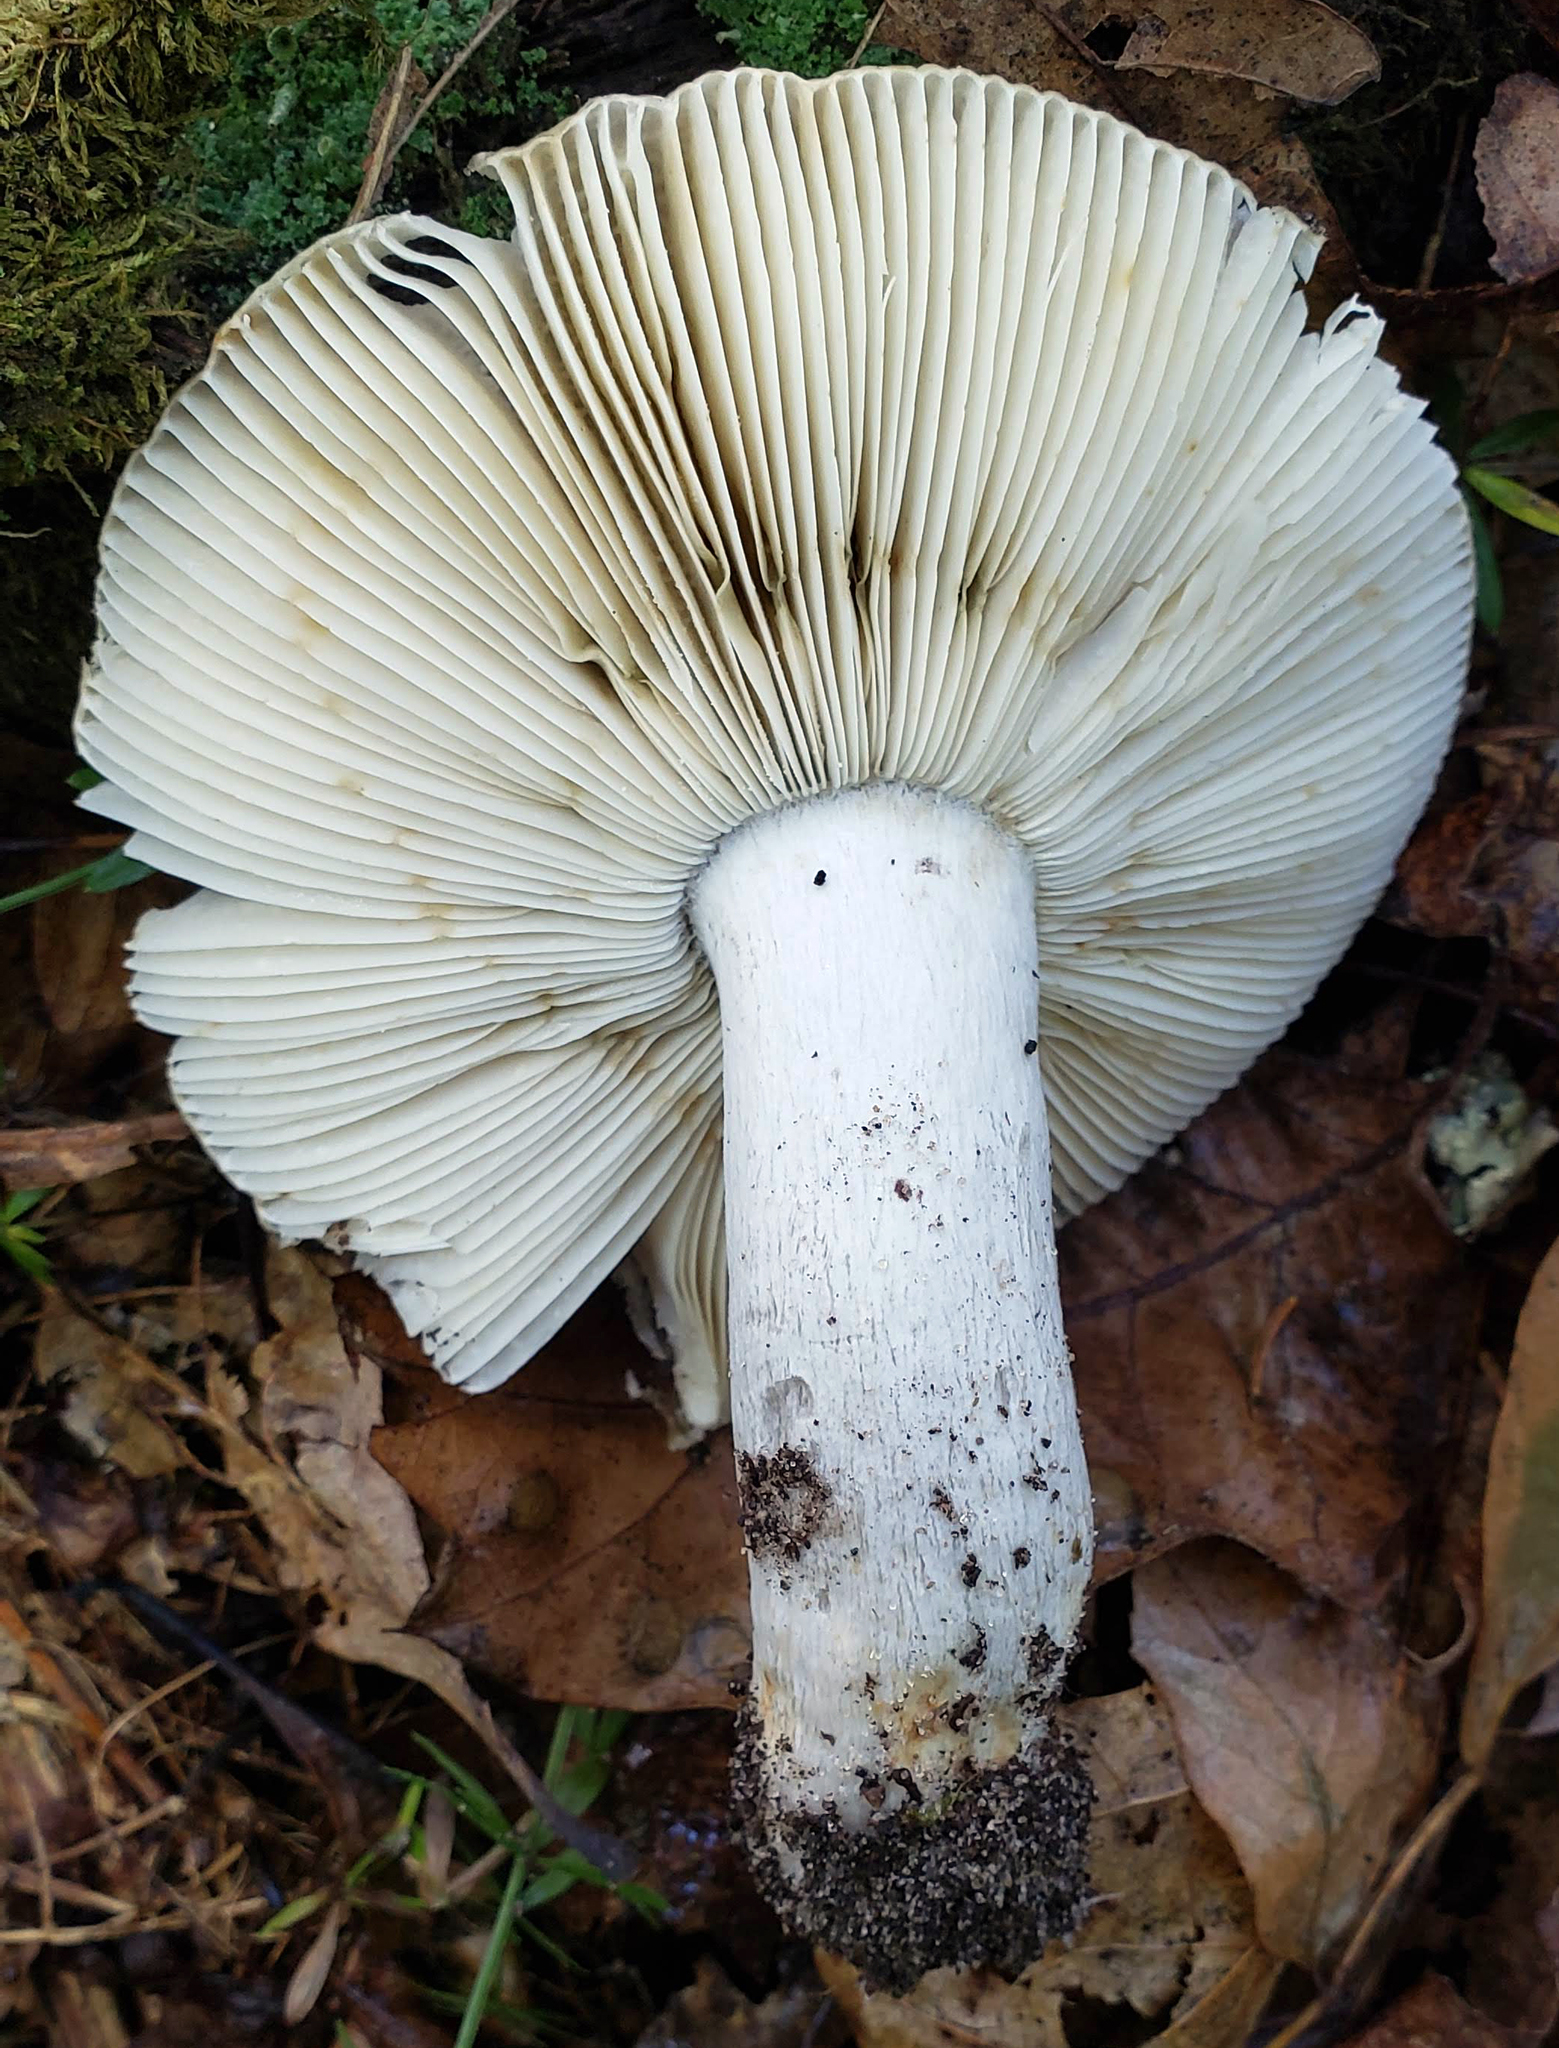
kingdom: Fungi
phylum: Basidiomycota
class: Agaricomycetes
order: Russulales
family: Russulaceae
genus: Russula
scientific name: Russula cyanoxantha
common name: Charcoal burner
